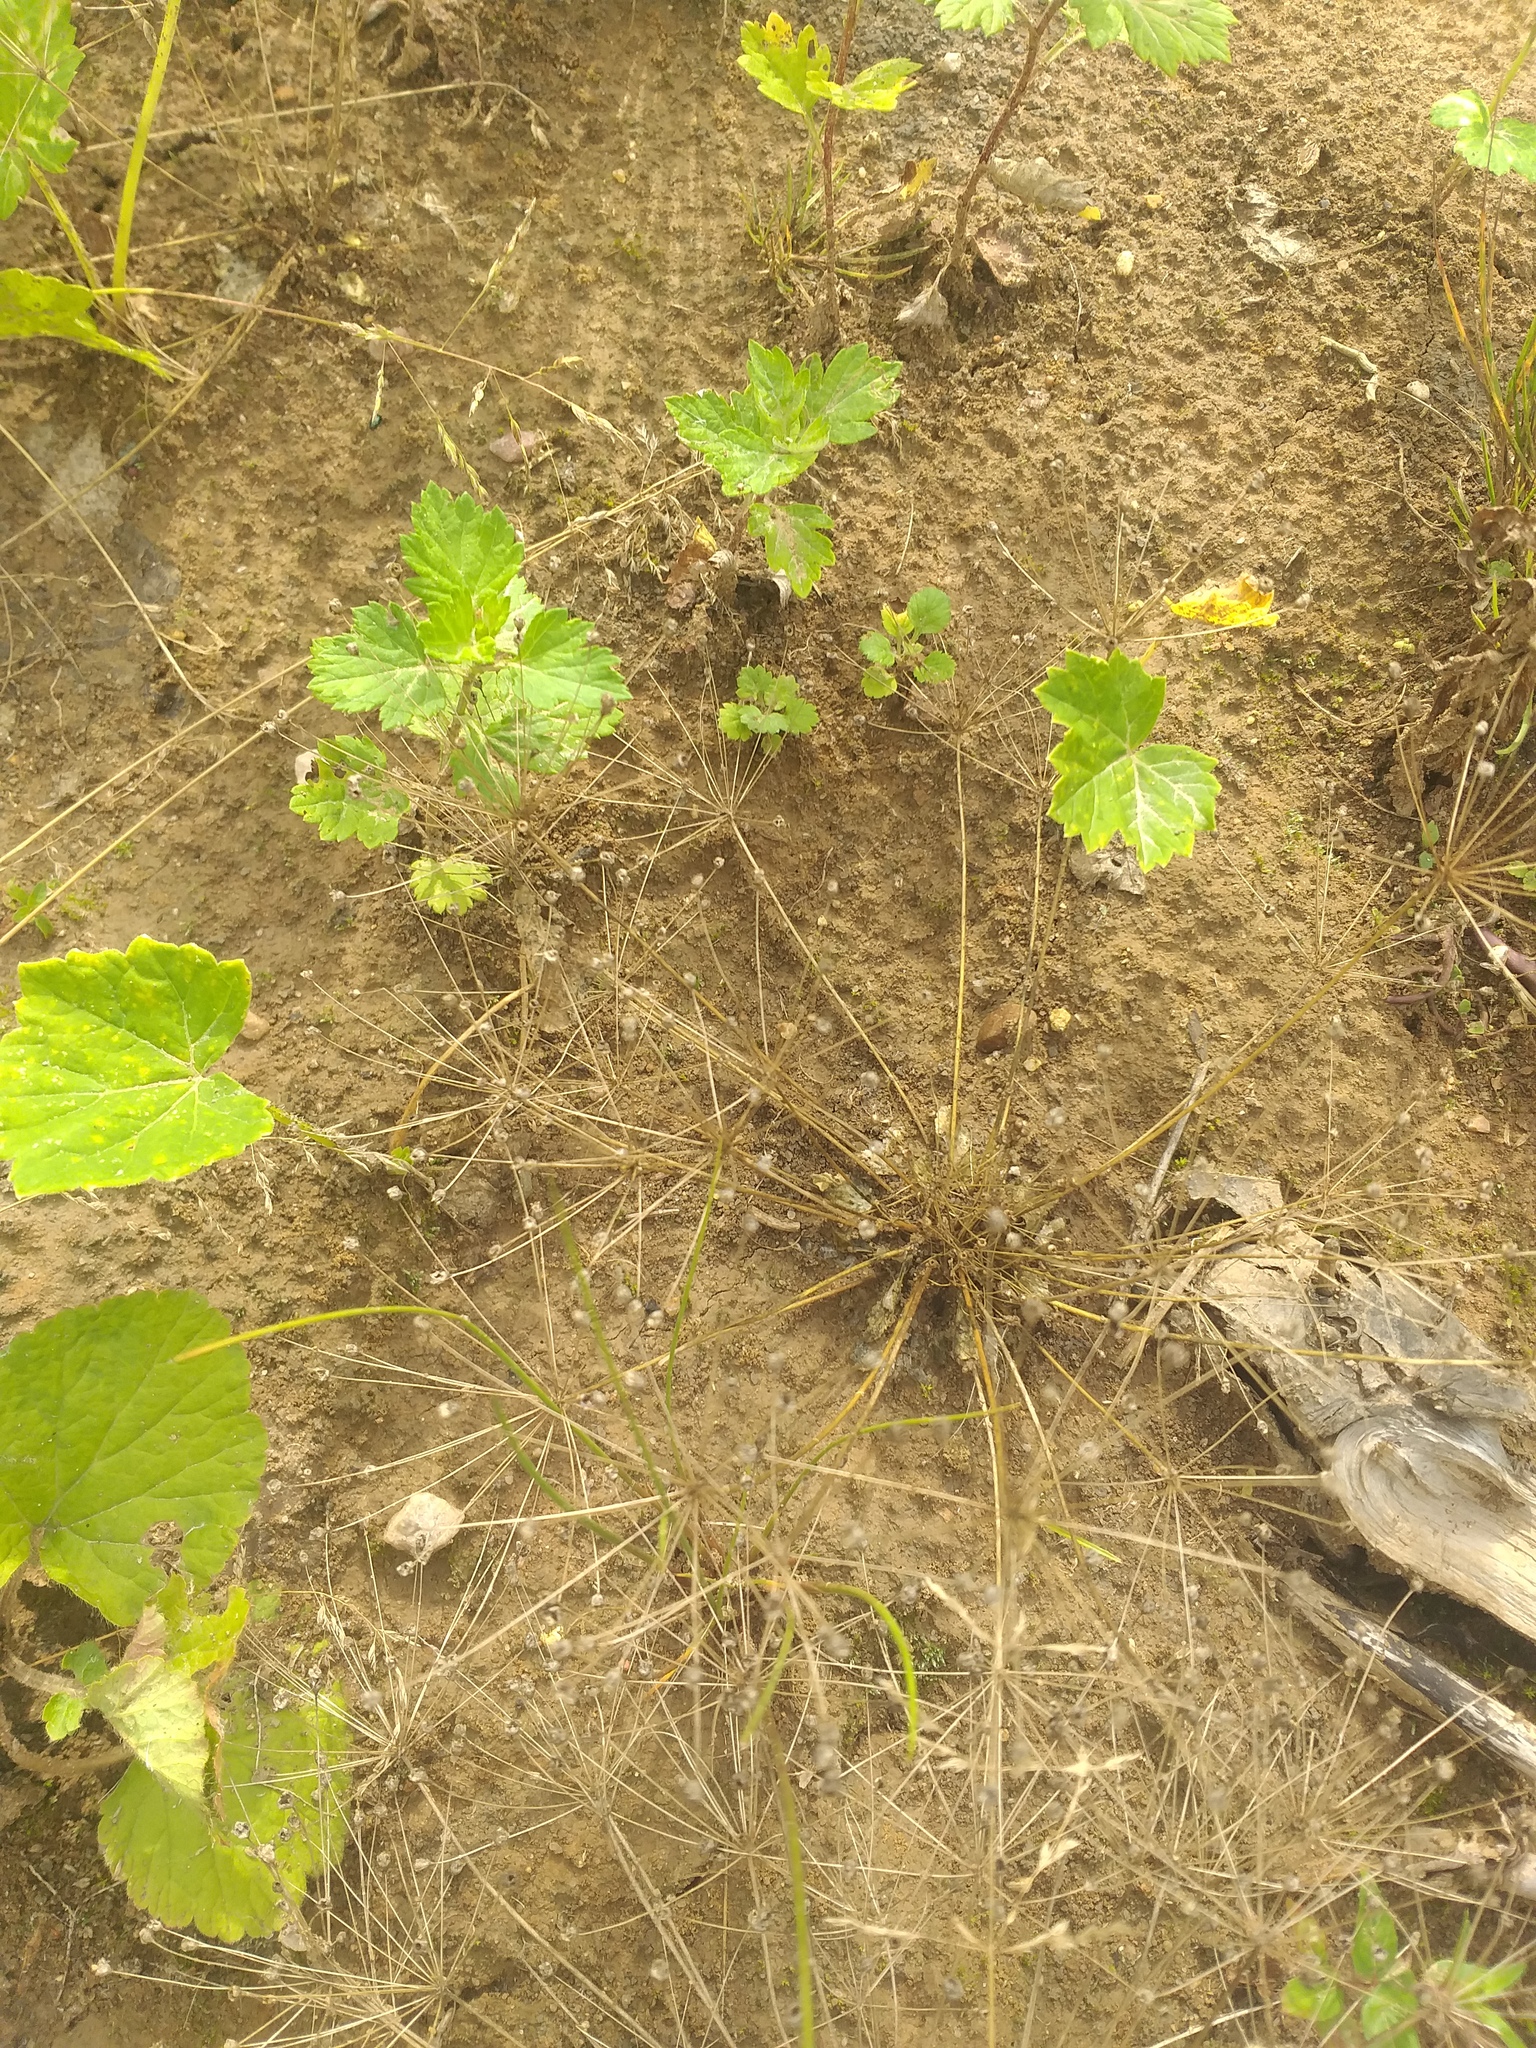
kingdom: Plantae
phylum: Tracheophyta
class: Magnoliopsida
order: Ericales
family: Primulaceae
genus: Androsace
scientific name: Androsace filiformis
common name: Filiform rock jasmine
